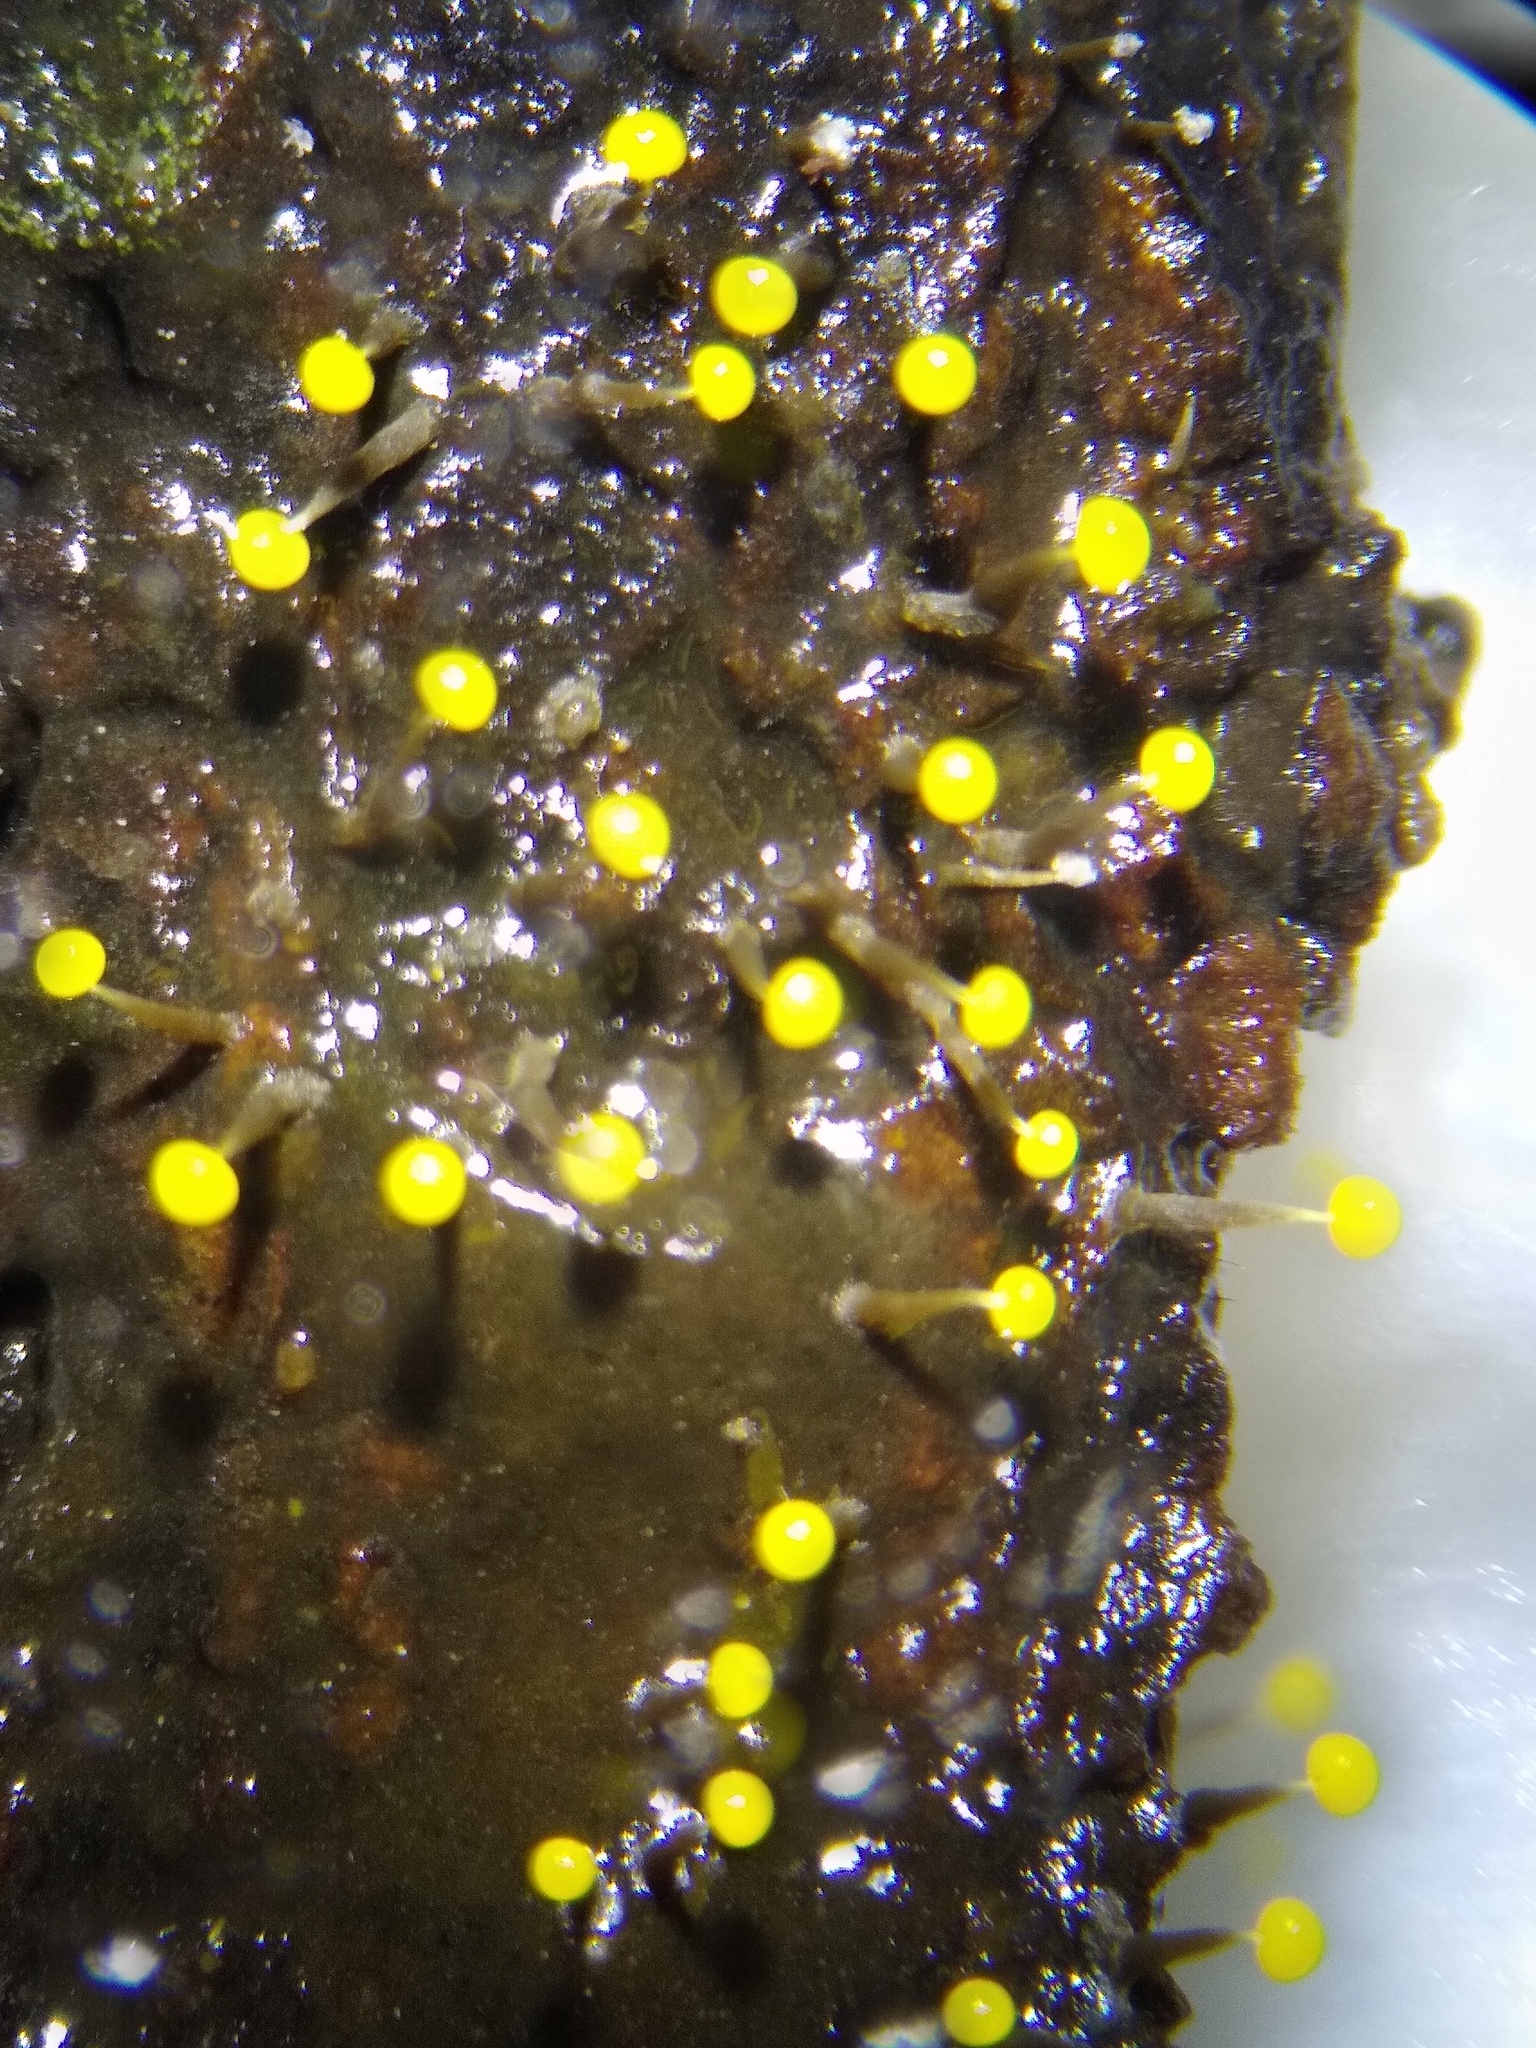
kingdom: Protozoa
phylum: Mycetozoa
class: Myxomycetes
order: Physarales
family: Physaraceae
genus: Physarum
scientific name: Physarum viride
